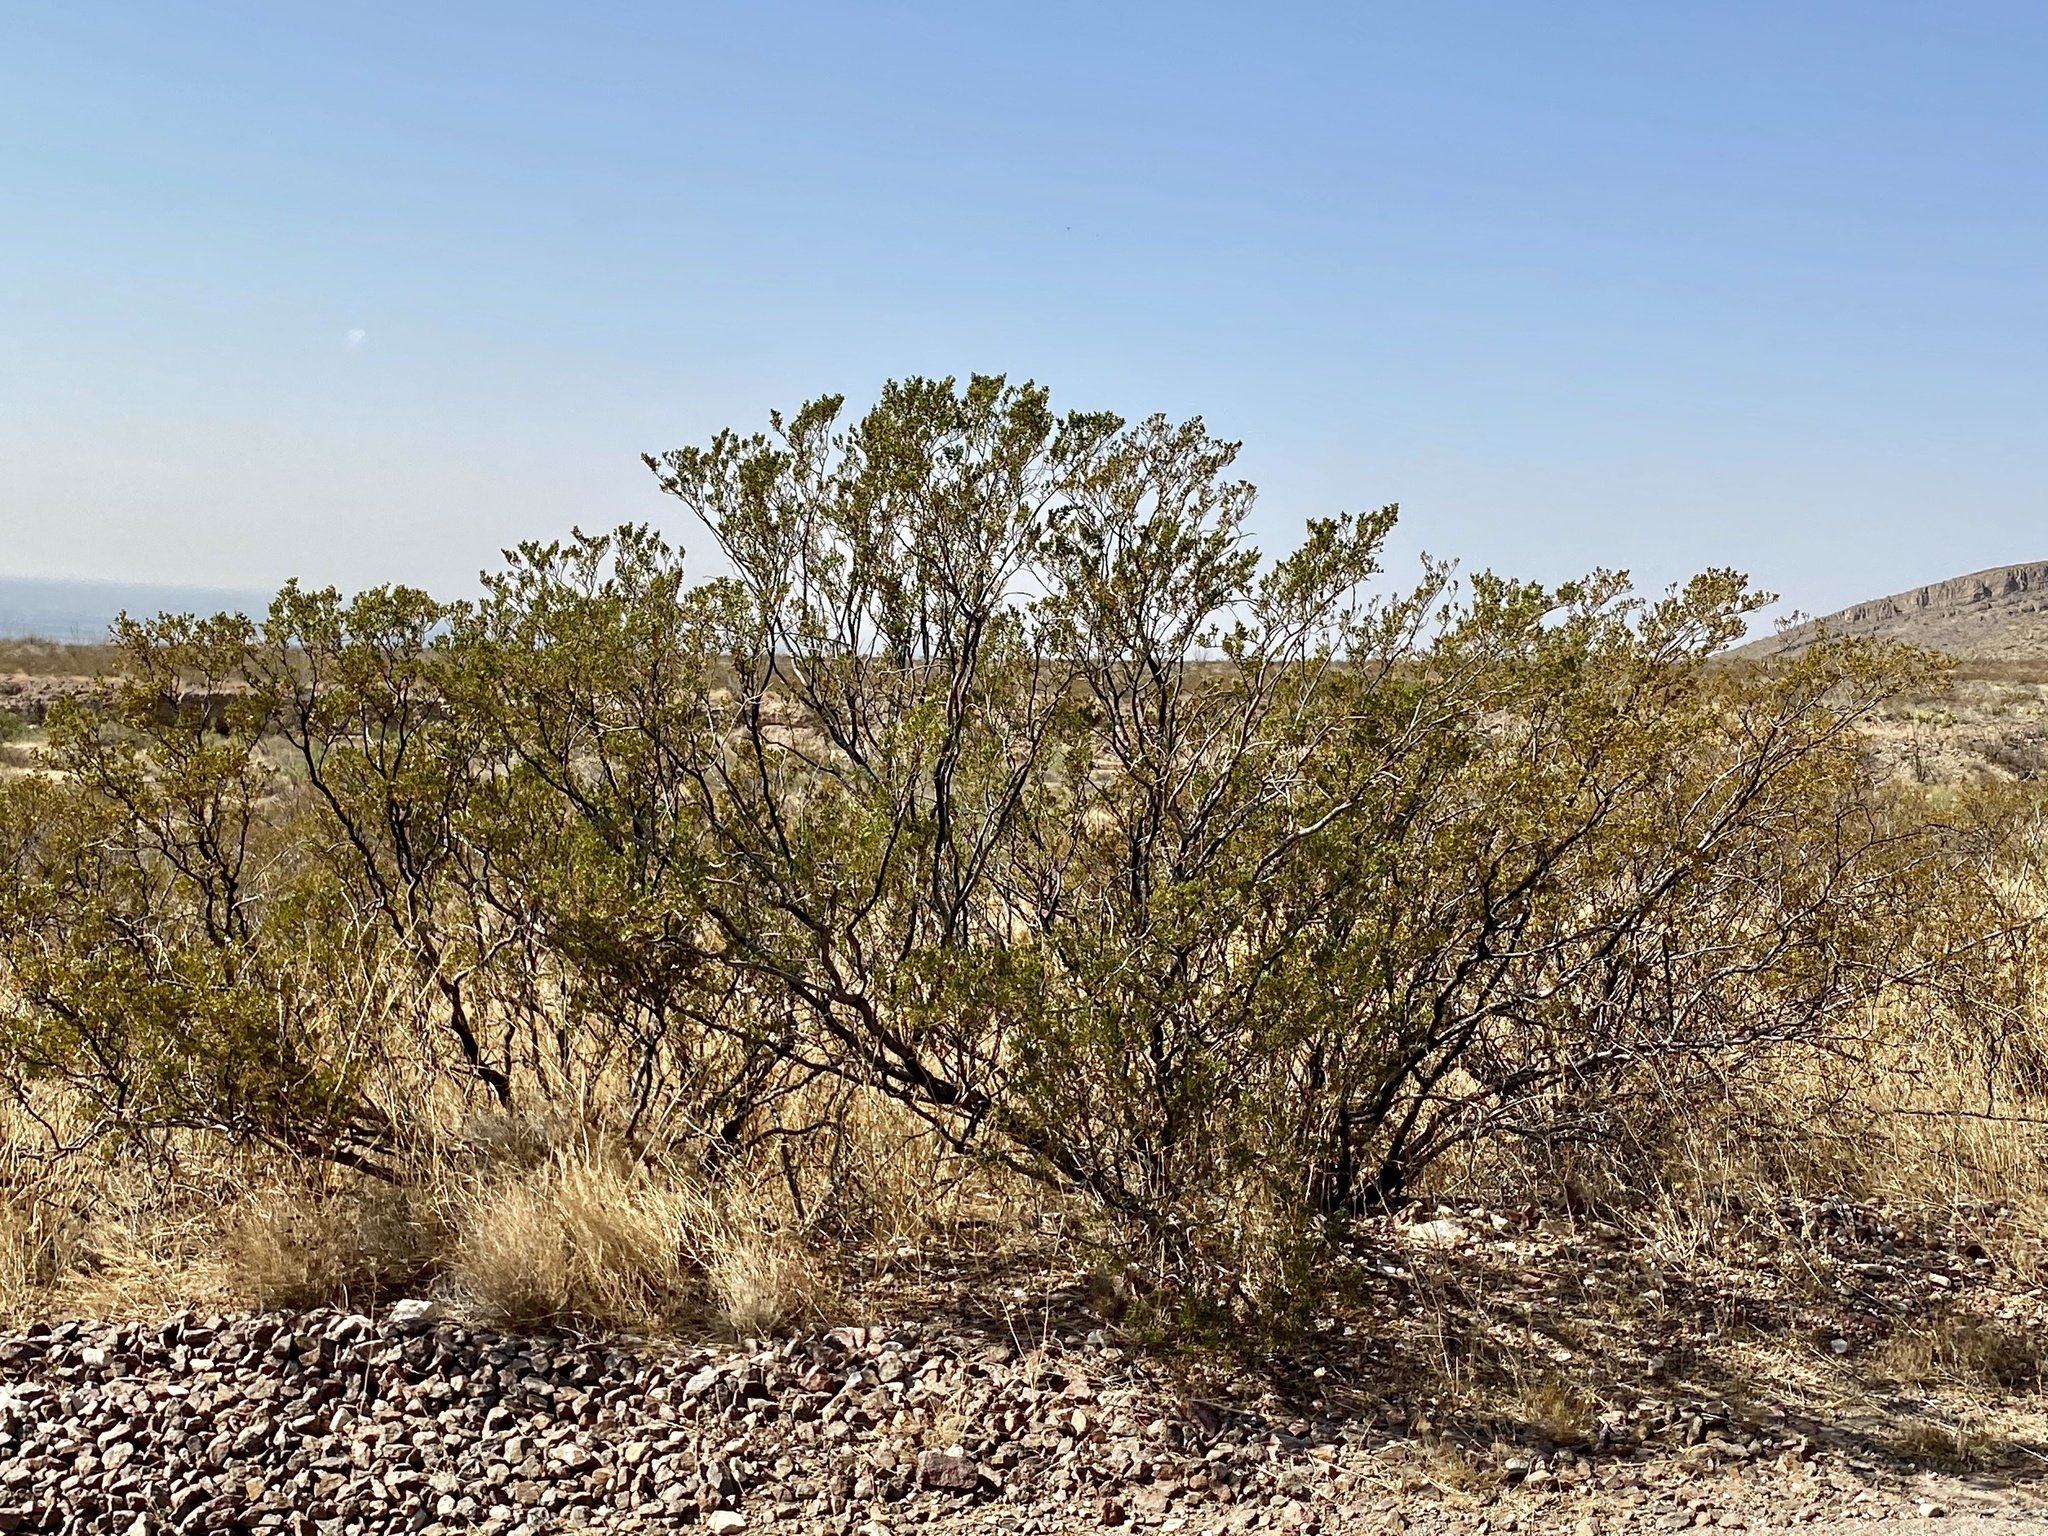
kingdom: Plantae
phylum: Tracheophyta
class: Magnoliopsida
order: Zygophyllales
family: Zygophyllaceae
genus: Larrea
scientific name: Larrea tridentata
